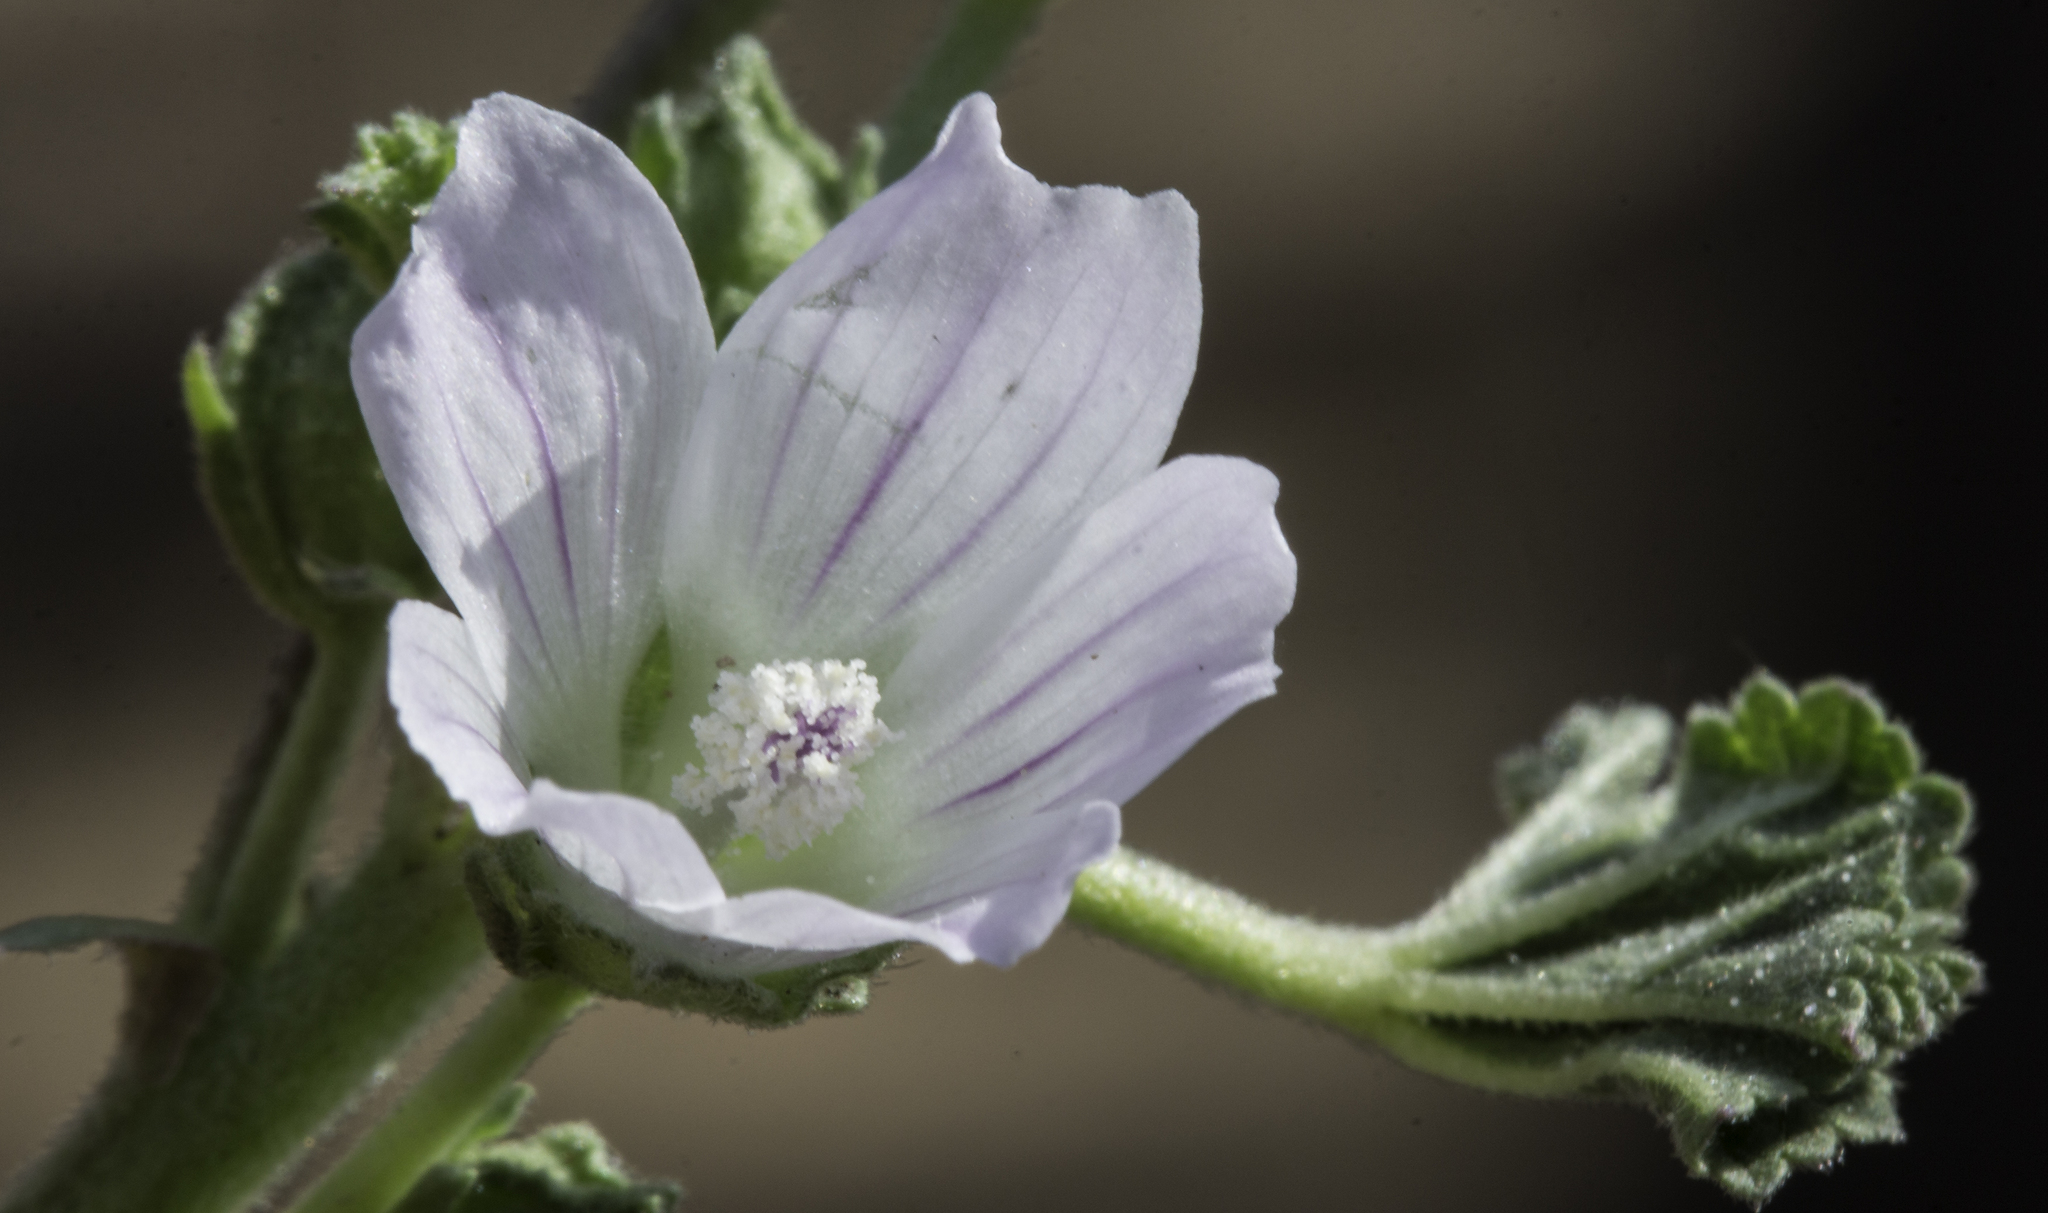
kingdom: Plantae
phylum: Tracheophyta
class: Magnoliopsida
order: Malvales
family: Malvaceae
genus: Malva
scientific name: Malva neglecta
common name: Common mallow
